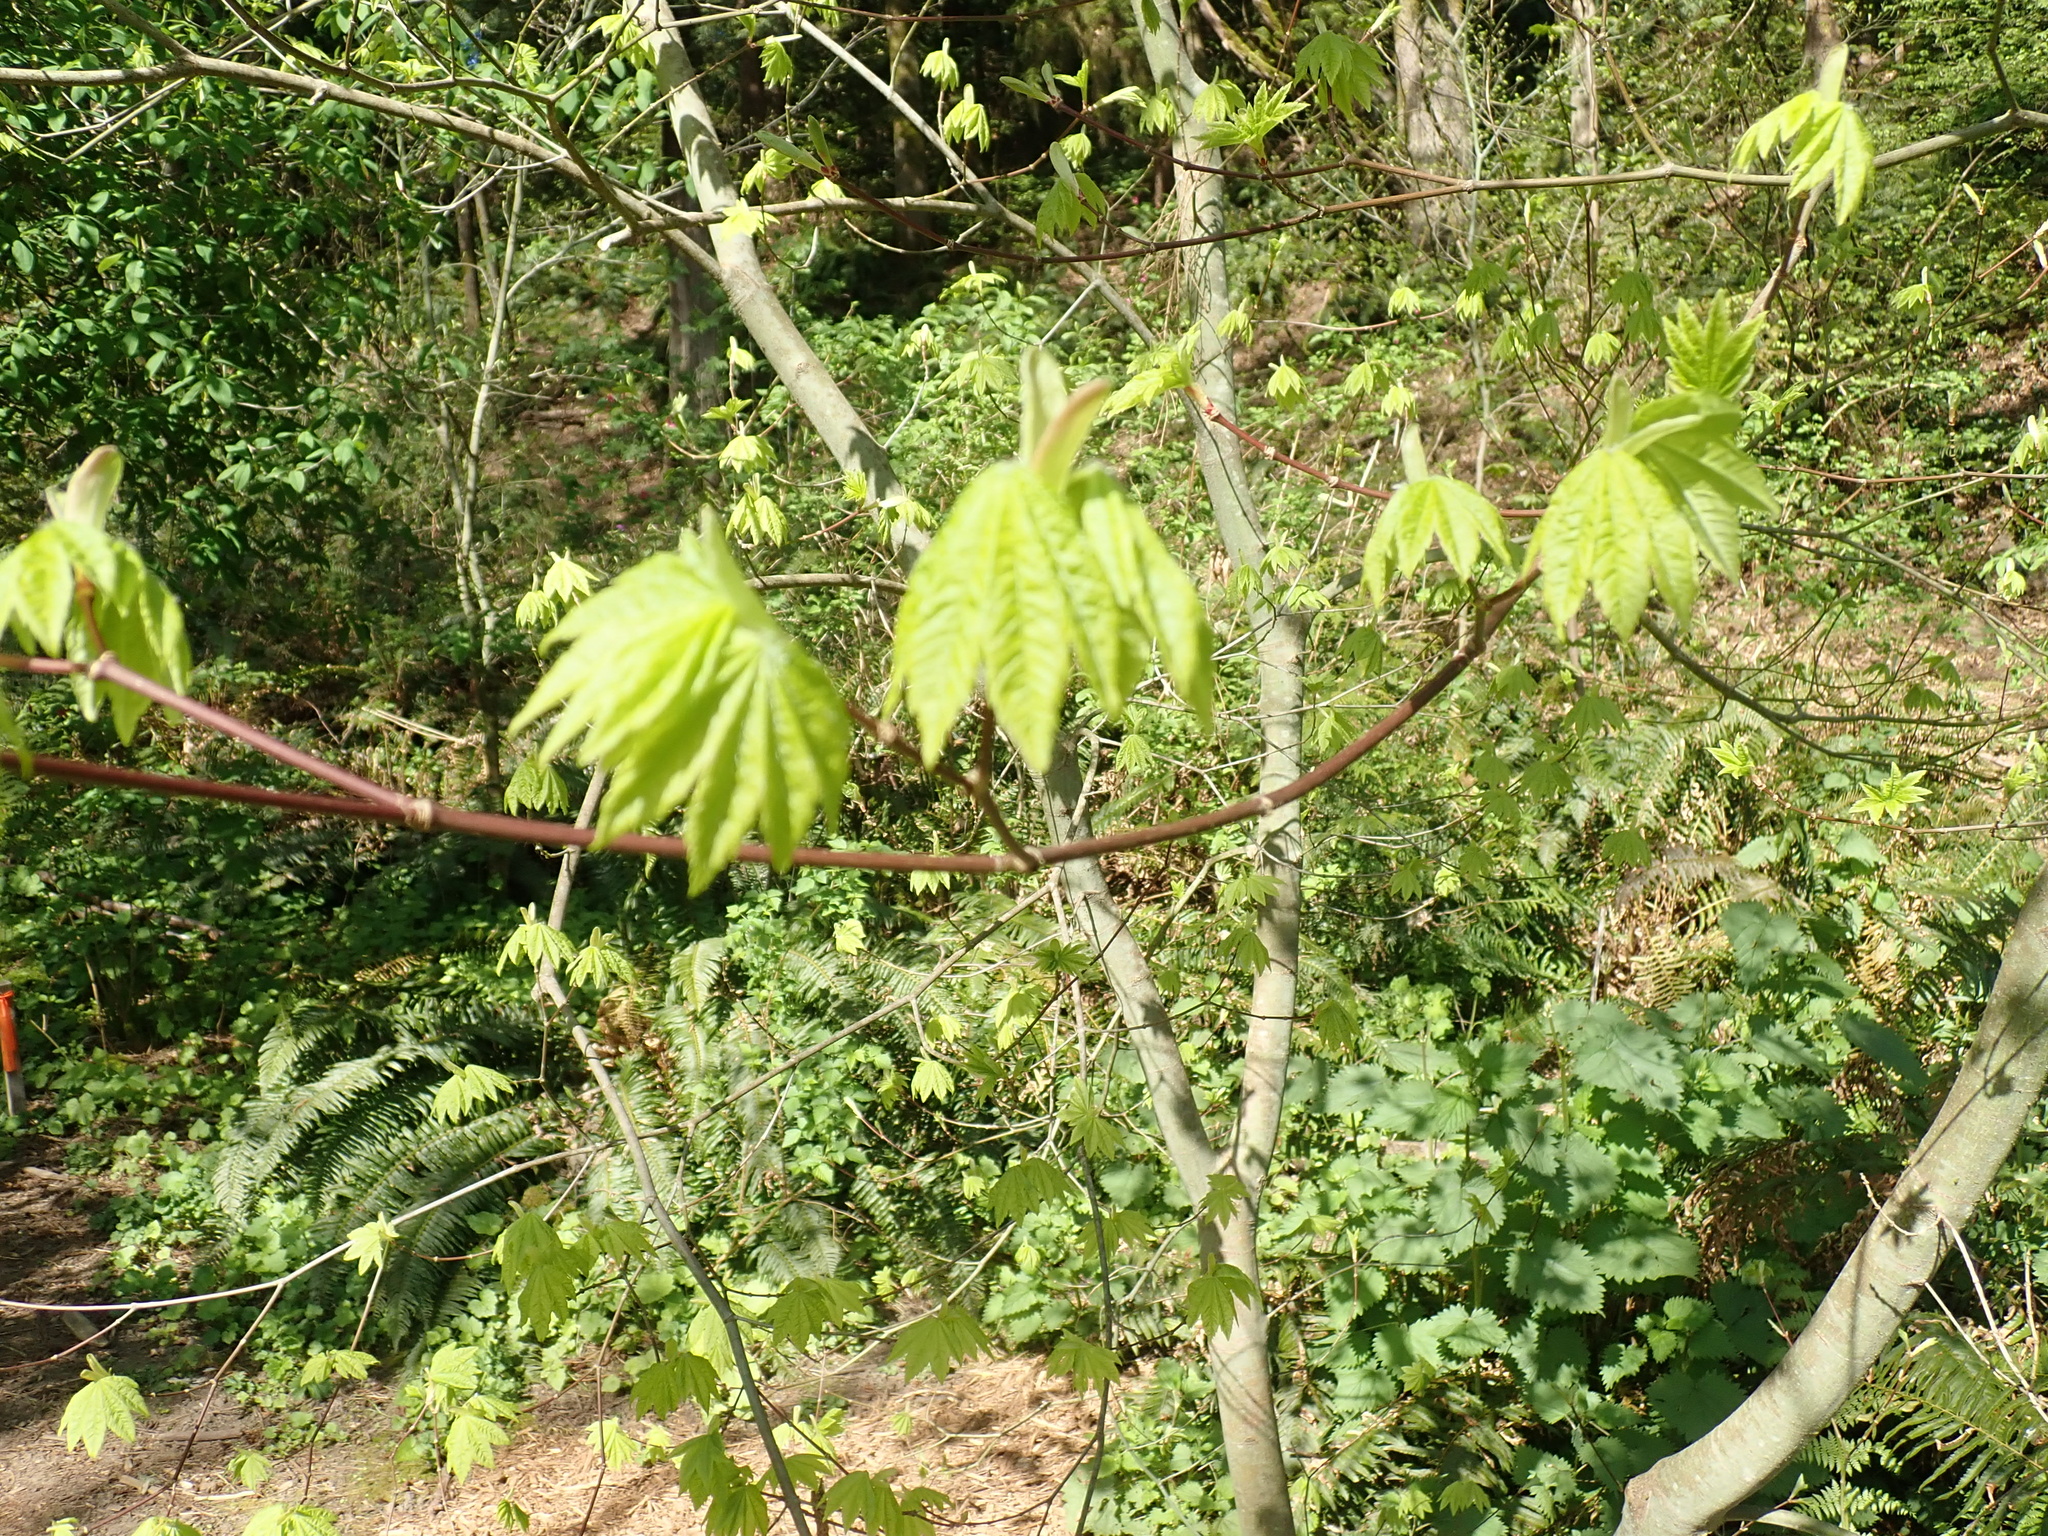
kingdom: Plantae
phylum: Tracheophyta
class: Magnoliopsida
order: Sapindales
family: Sapindaceae
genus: Acer
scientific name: Acer circinatum
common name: Vine maple
